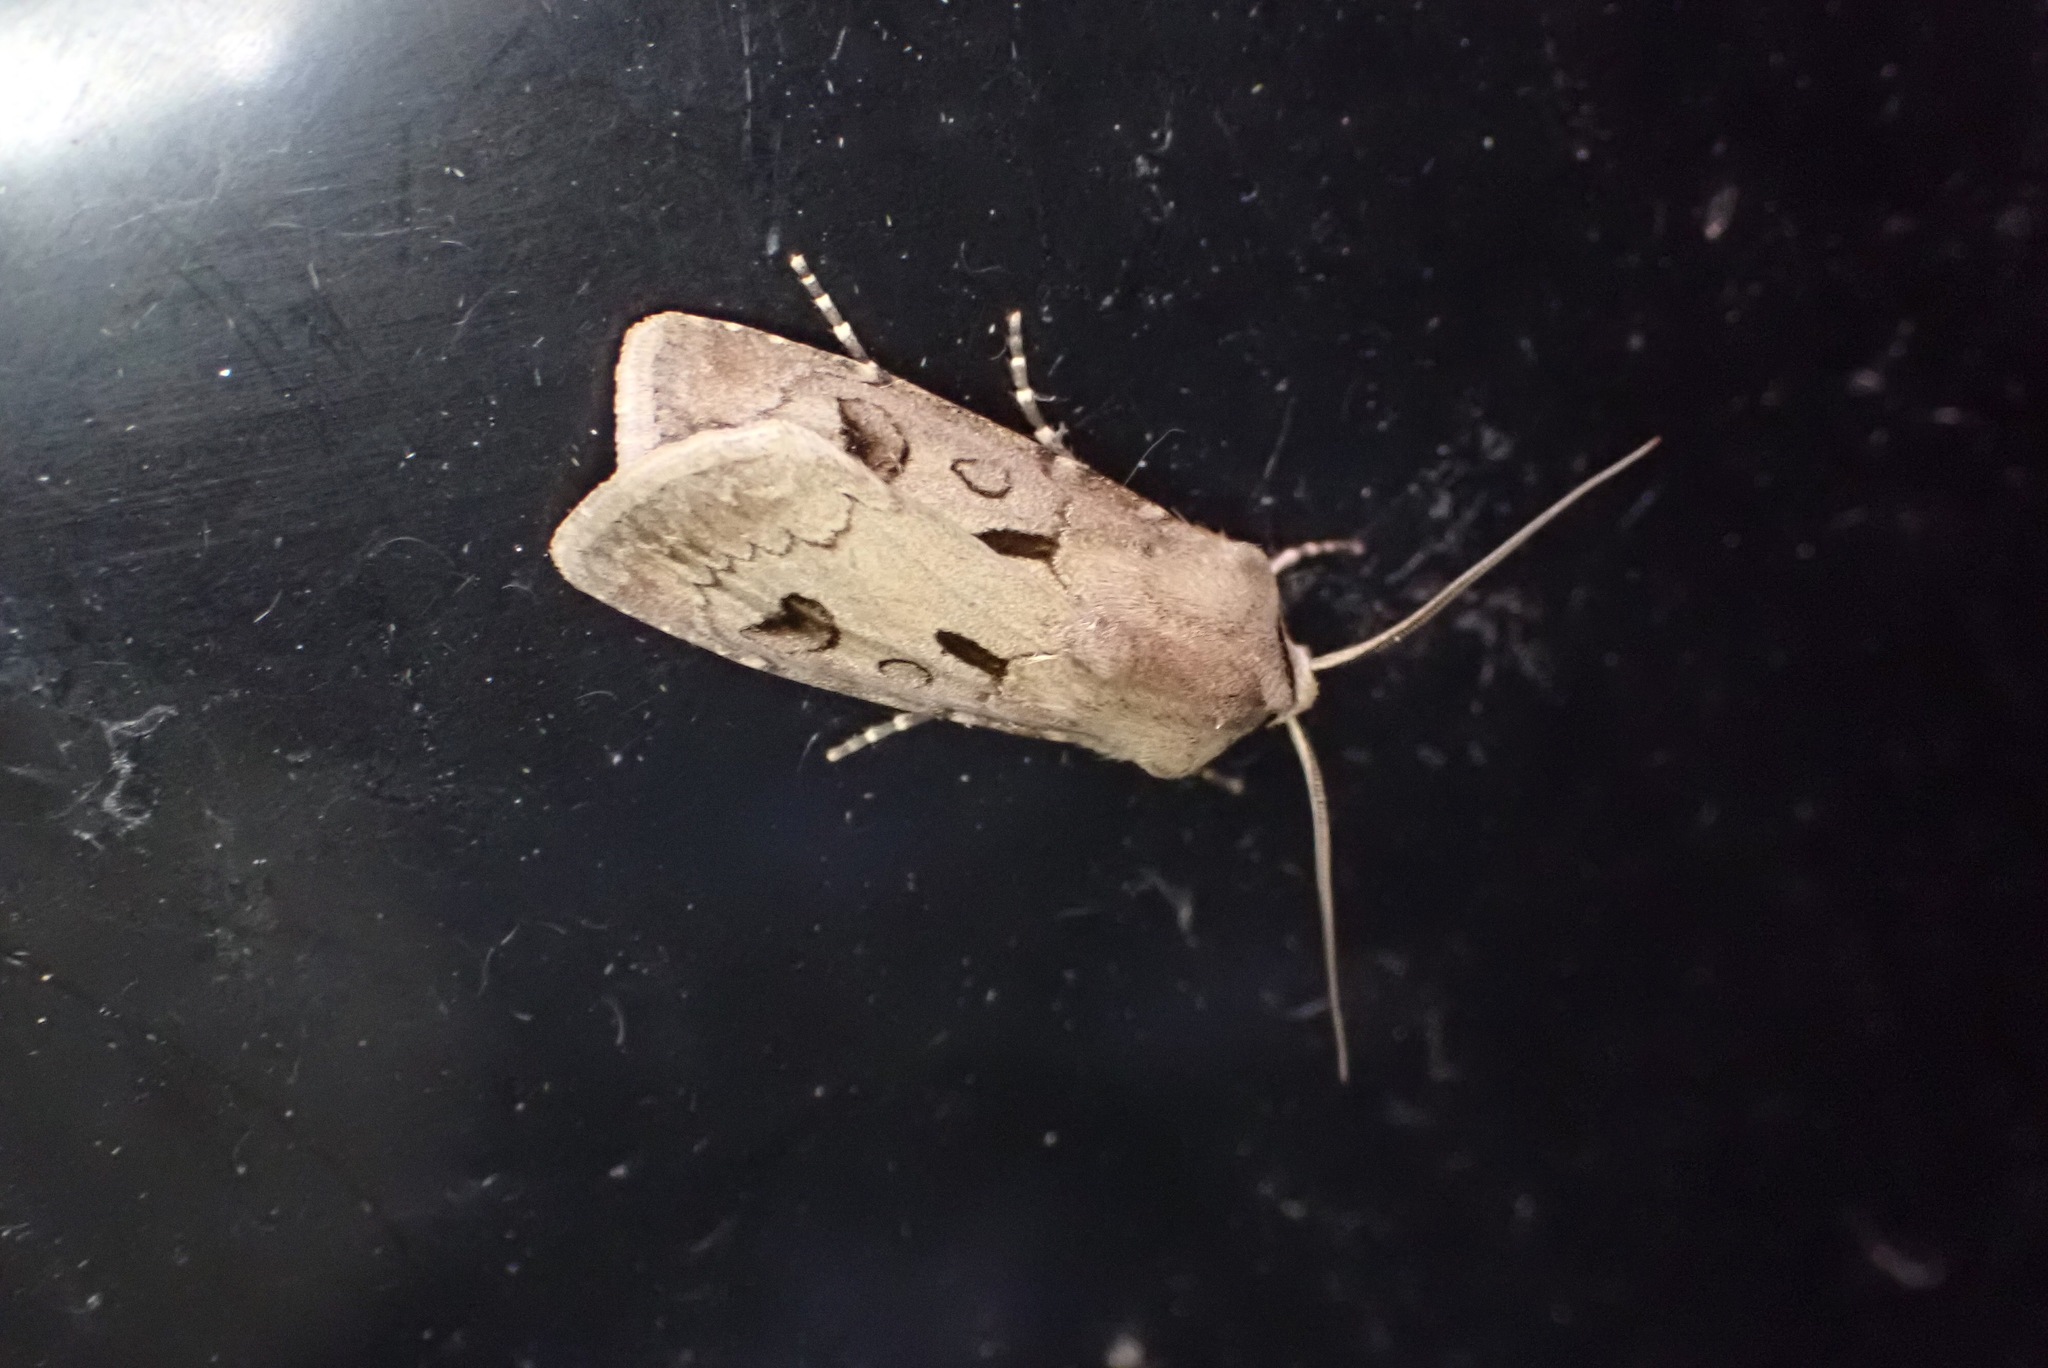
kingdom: Animalia
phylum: Arthropoda
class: Insecta
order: Lepidoptera
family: Noctuidae
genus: Agrotis
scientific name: Agrotis exclamationis
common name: Heart and dart
